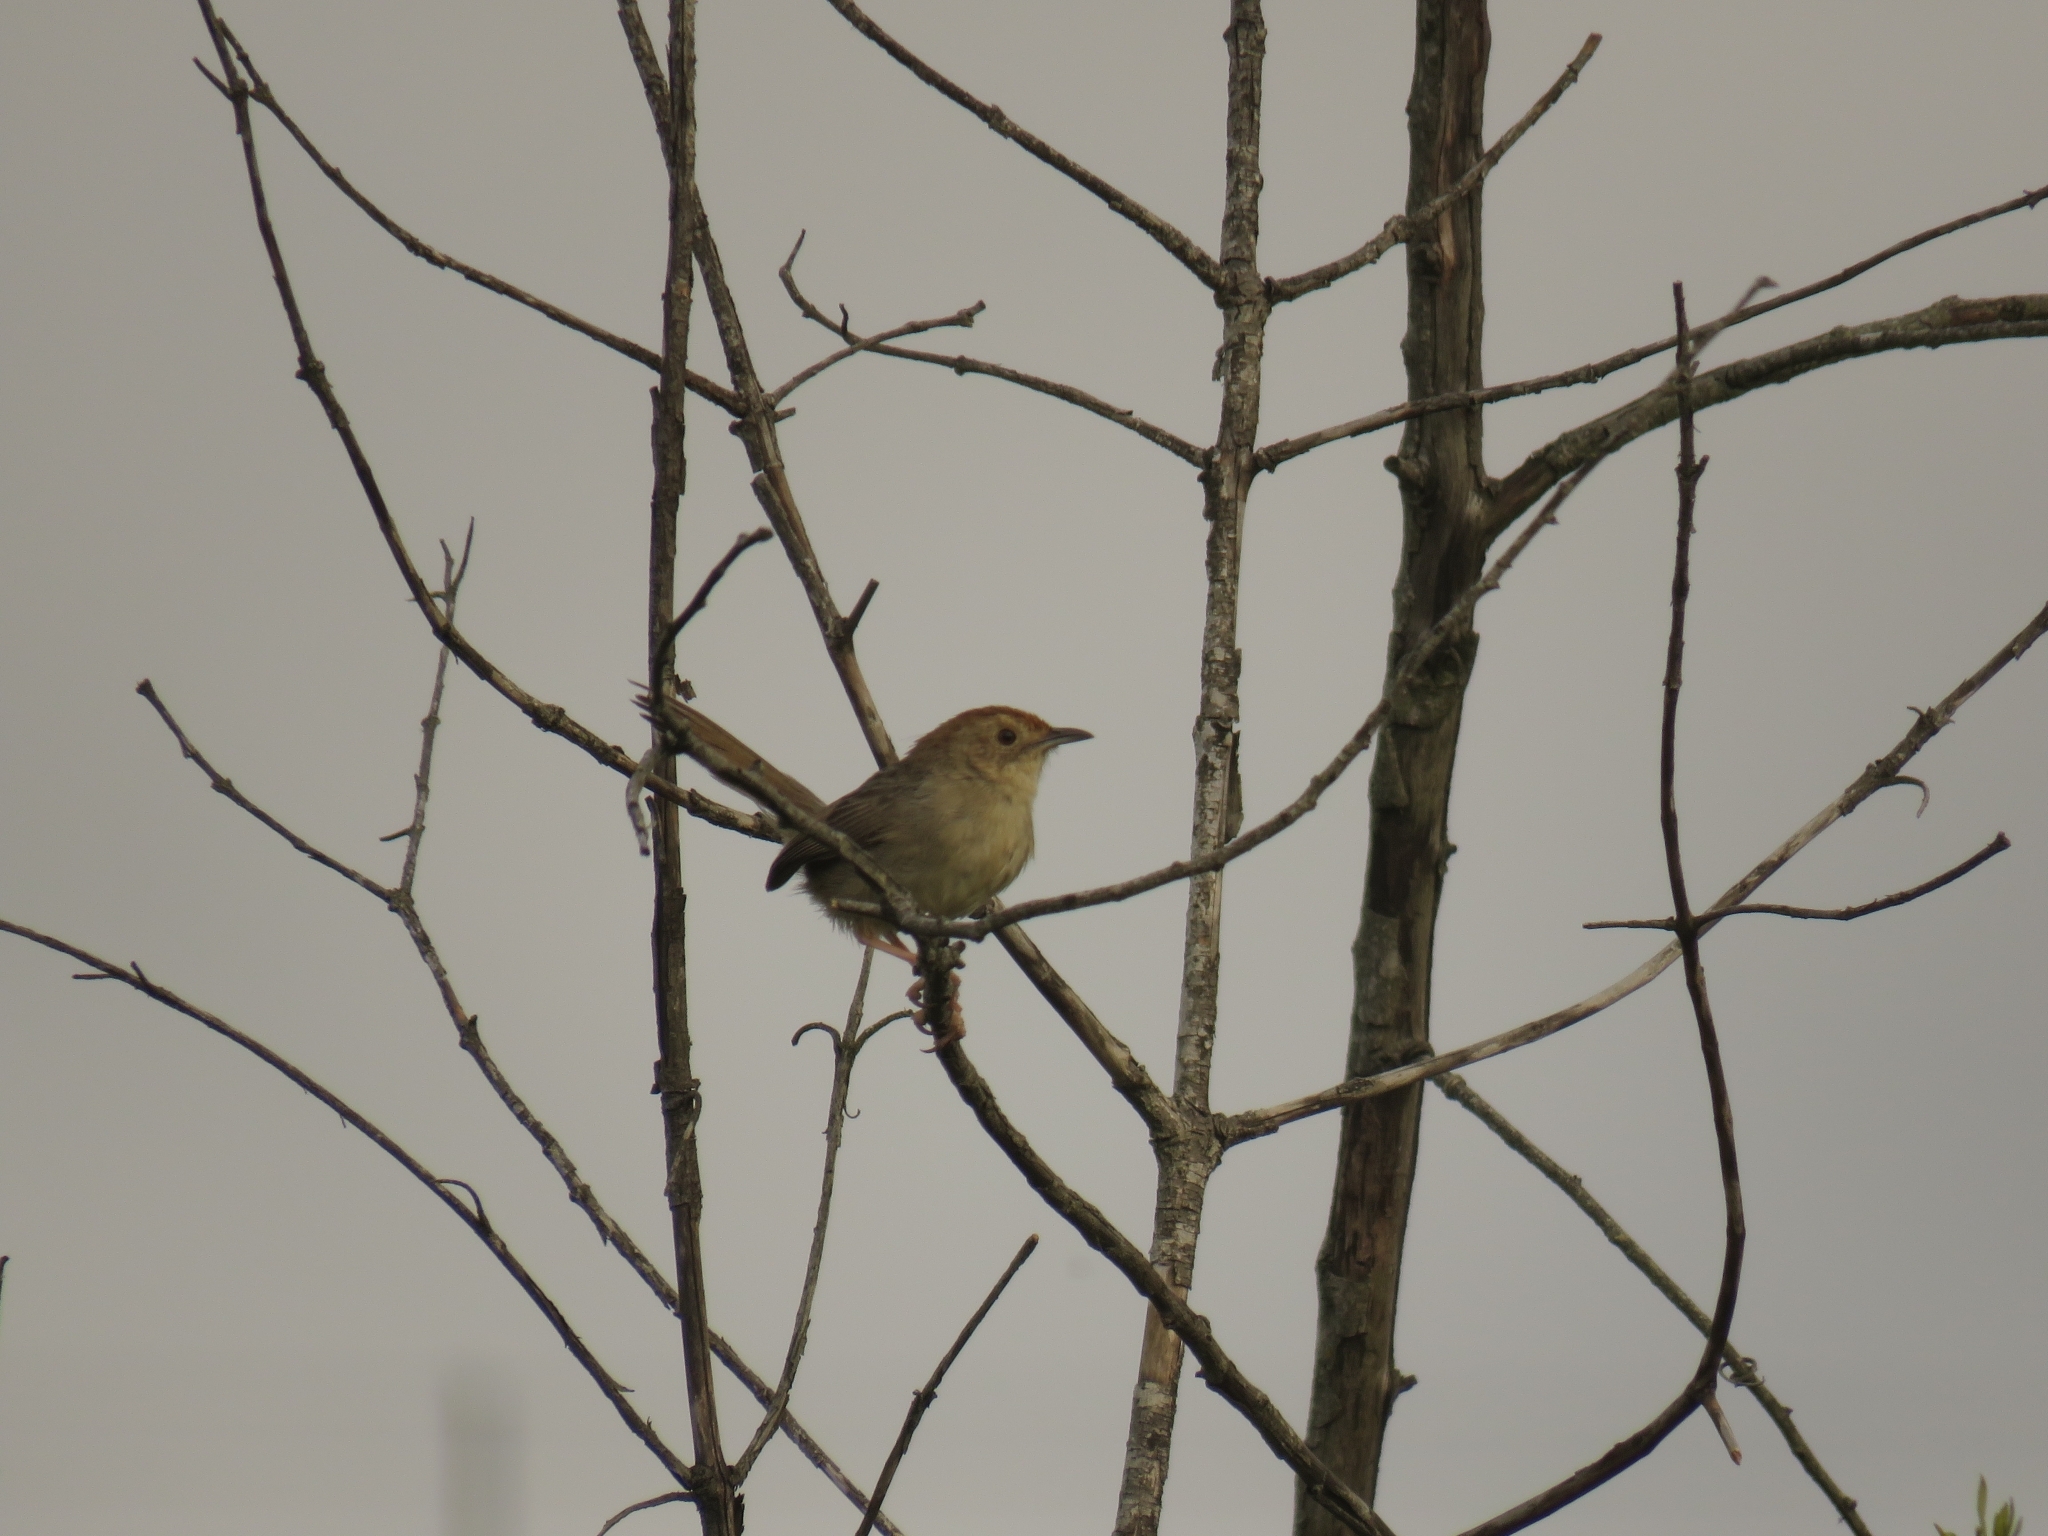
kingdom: Animalia
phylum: Chordata
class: Aves
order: Passeriformes
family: Cisticolidae
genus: Cisticola
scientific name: Cisticola aberrans
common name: Lazy cisticola
